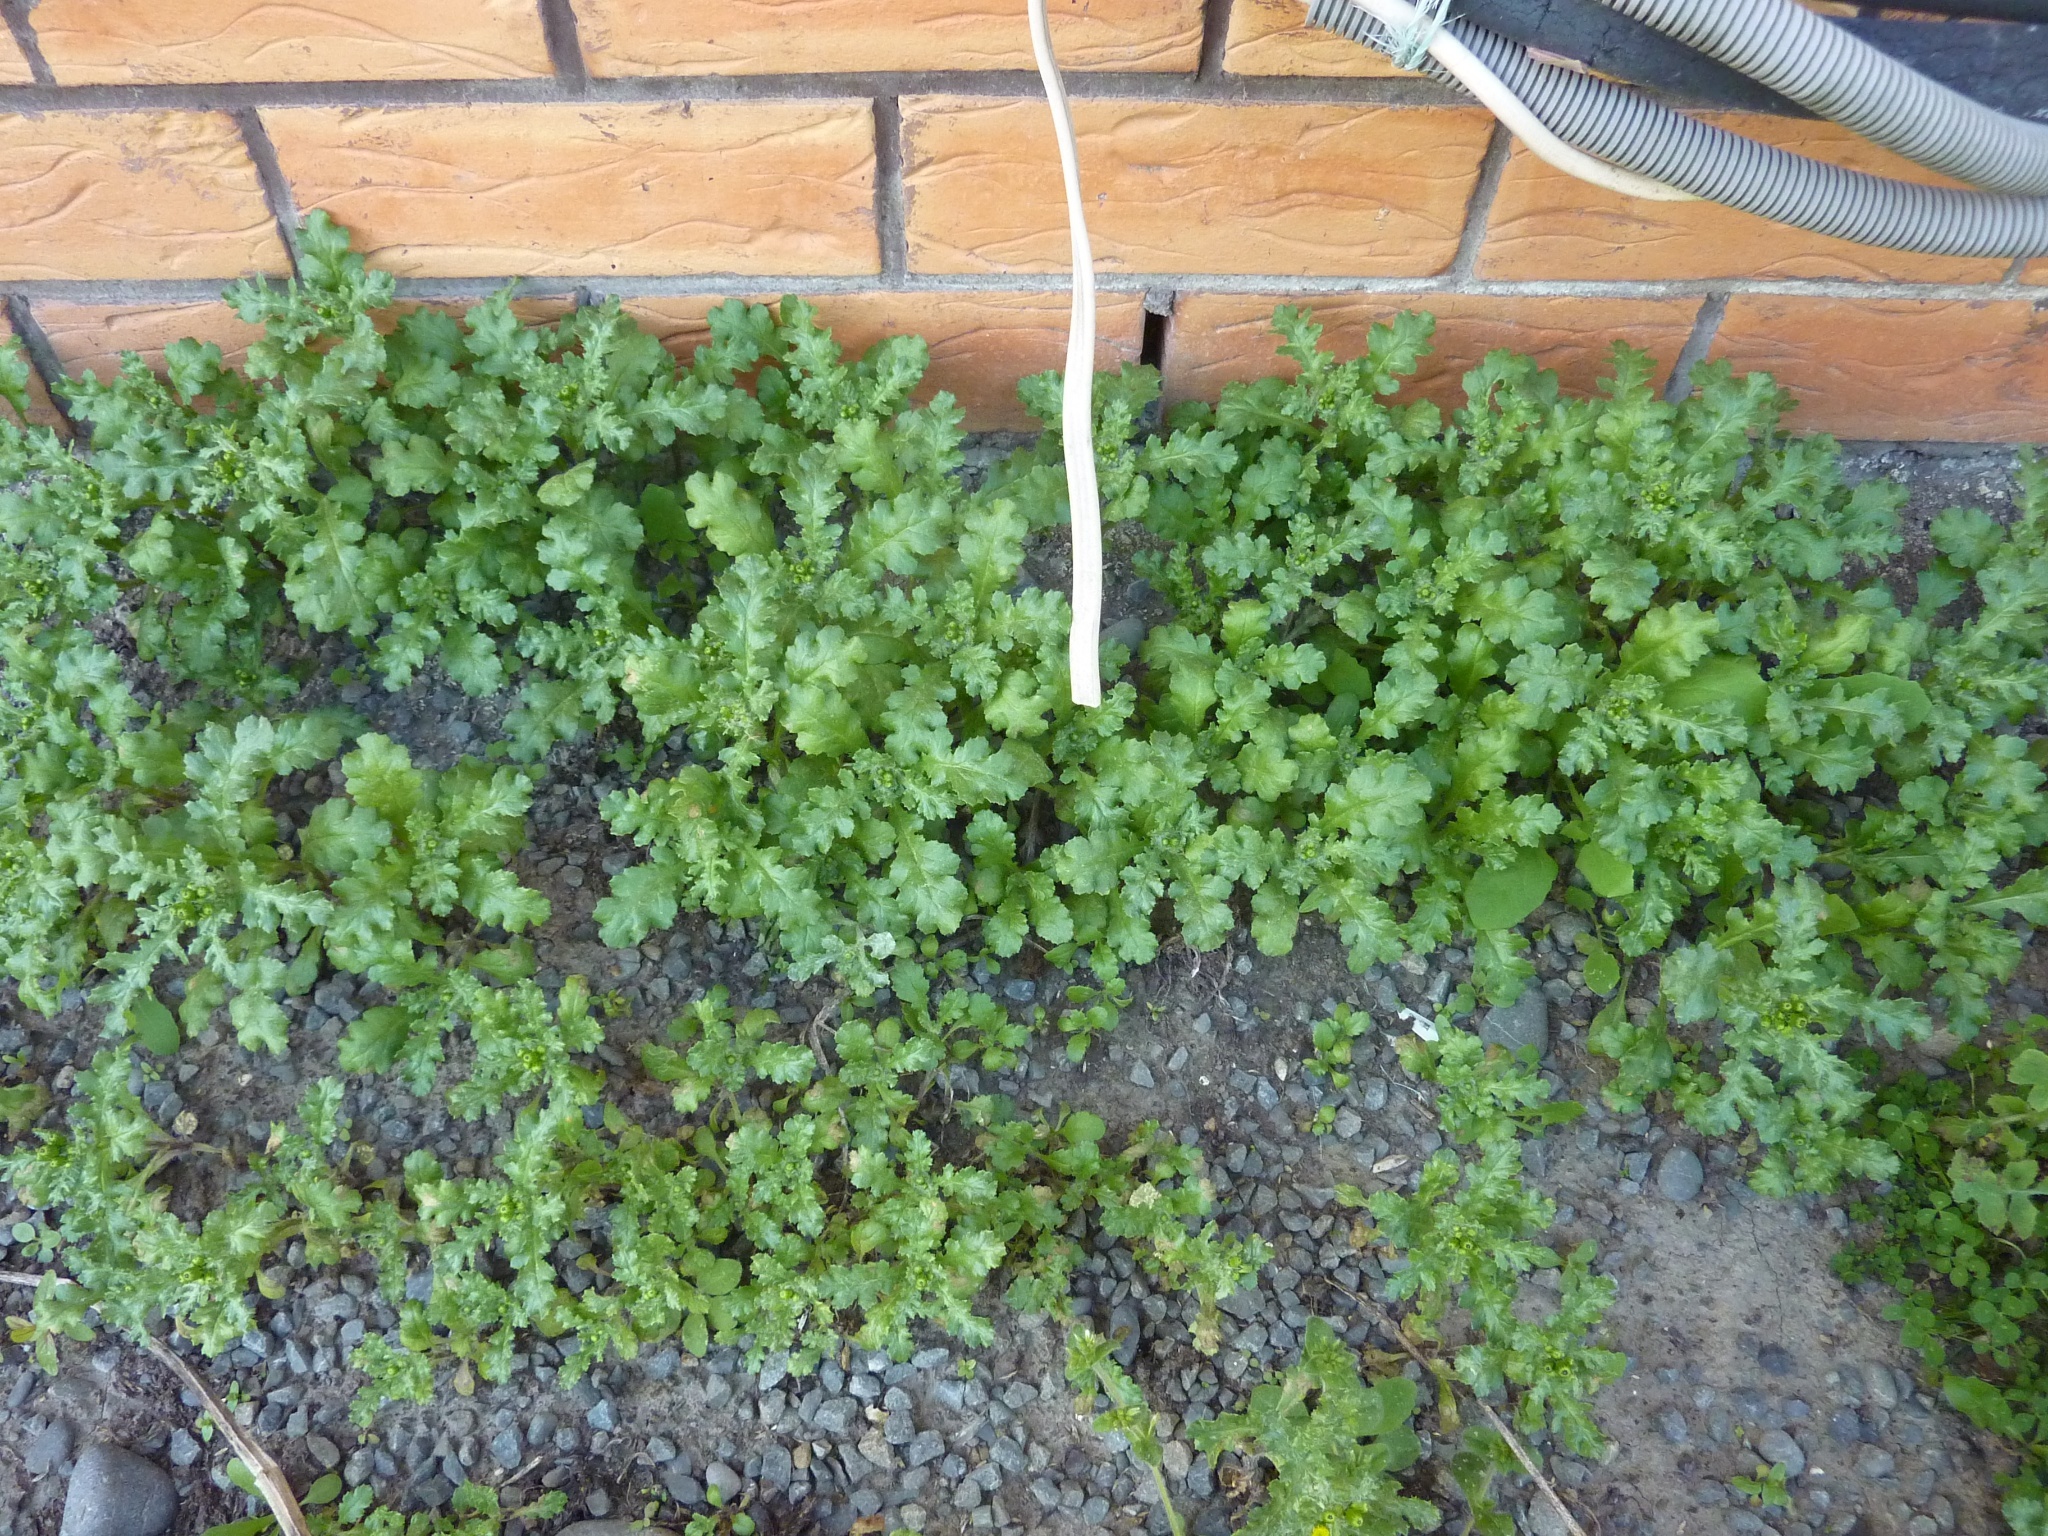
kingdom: Plantae
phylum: Tracheophyta
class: Magnoliopsida
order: Asterales
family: Asteraceae
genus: Senecio
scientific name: Senecio vulgaris
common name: Old-man-in-the-spring
